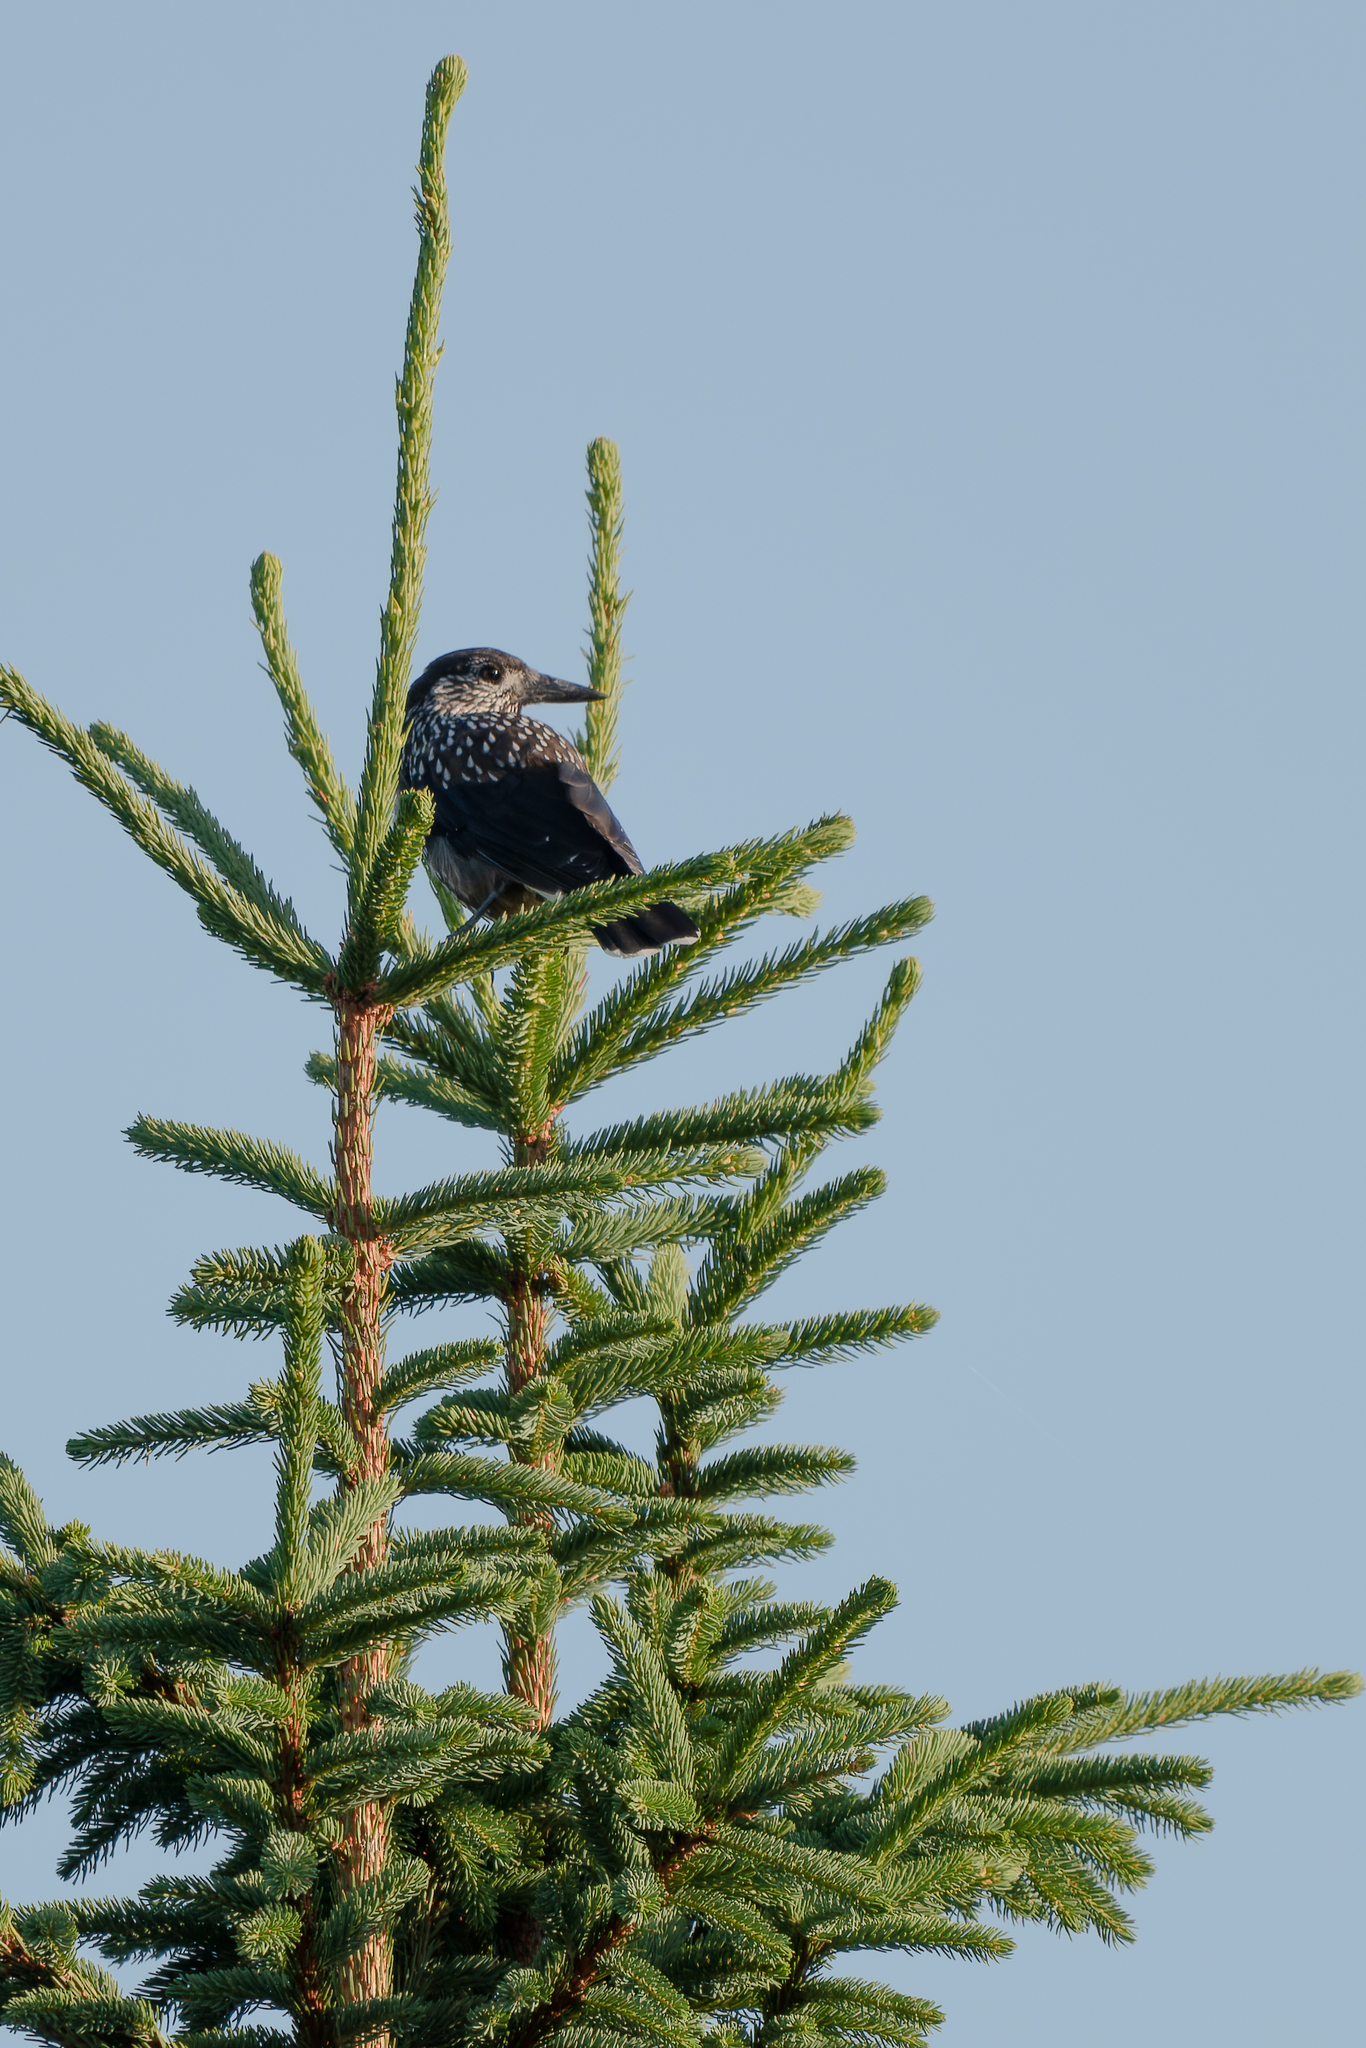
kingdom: Animalia
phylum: Chordata
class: Aves
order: Passeriformes
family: Corvidae
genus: Nucifraga
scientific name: Nucifraga caryocatactes
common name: Spotted nutcracker
